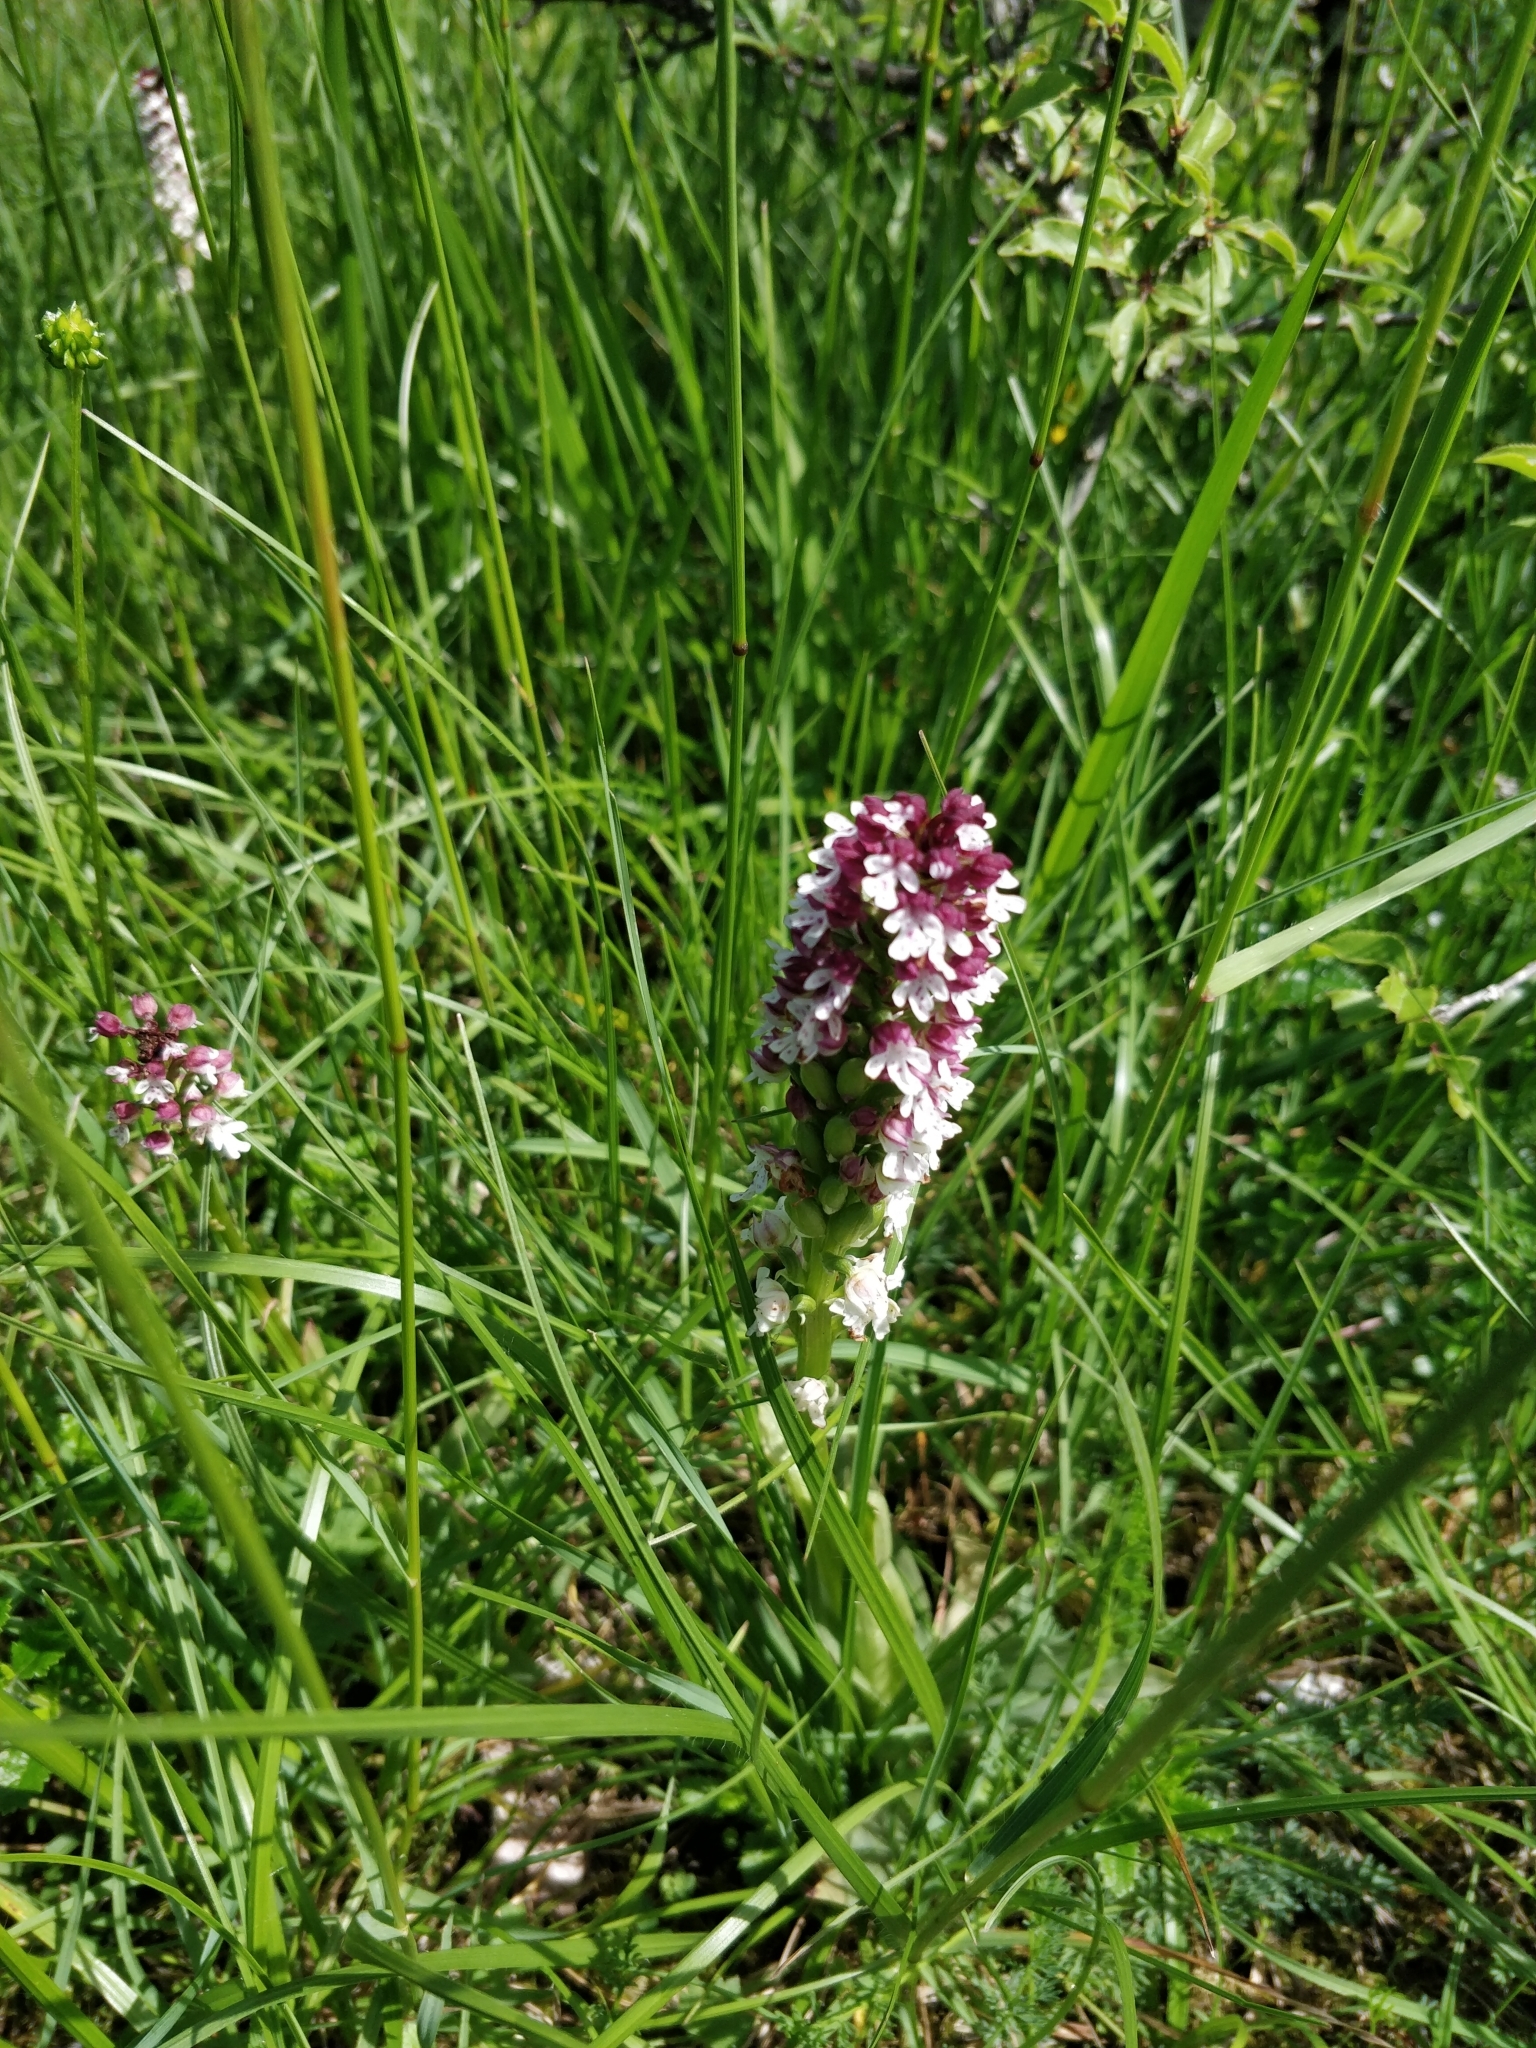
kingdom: Plantae
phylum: Tracheophyta
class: Liliopsida
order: Asparagales
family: Orchidaceae
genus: Neotinea
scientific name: Neotinea ustulata
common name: Burnt orchid
